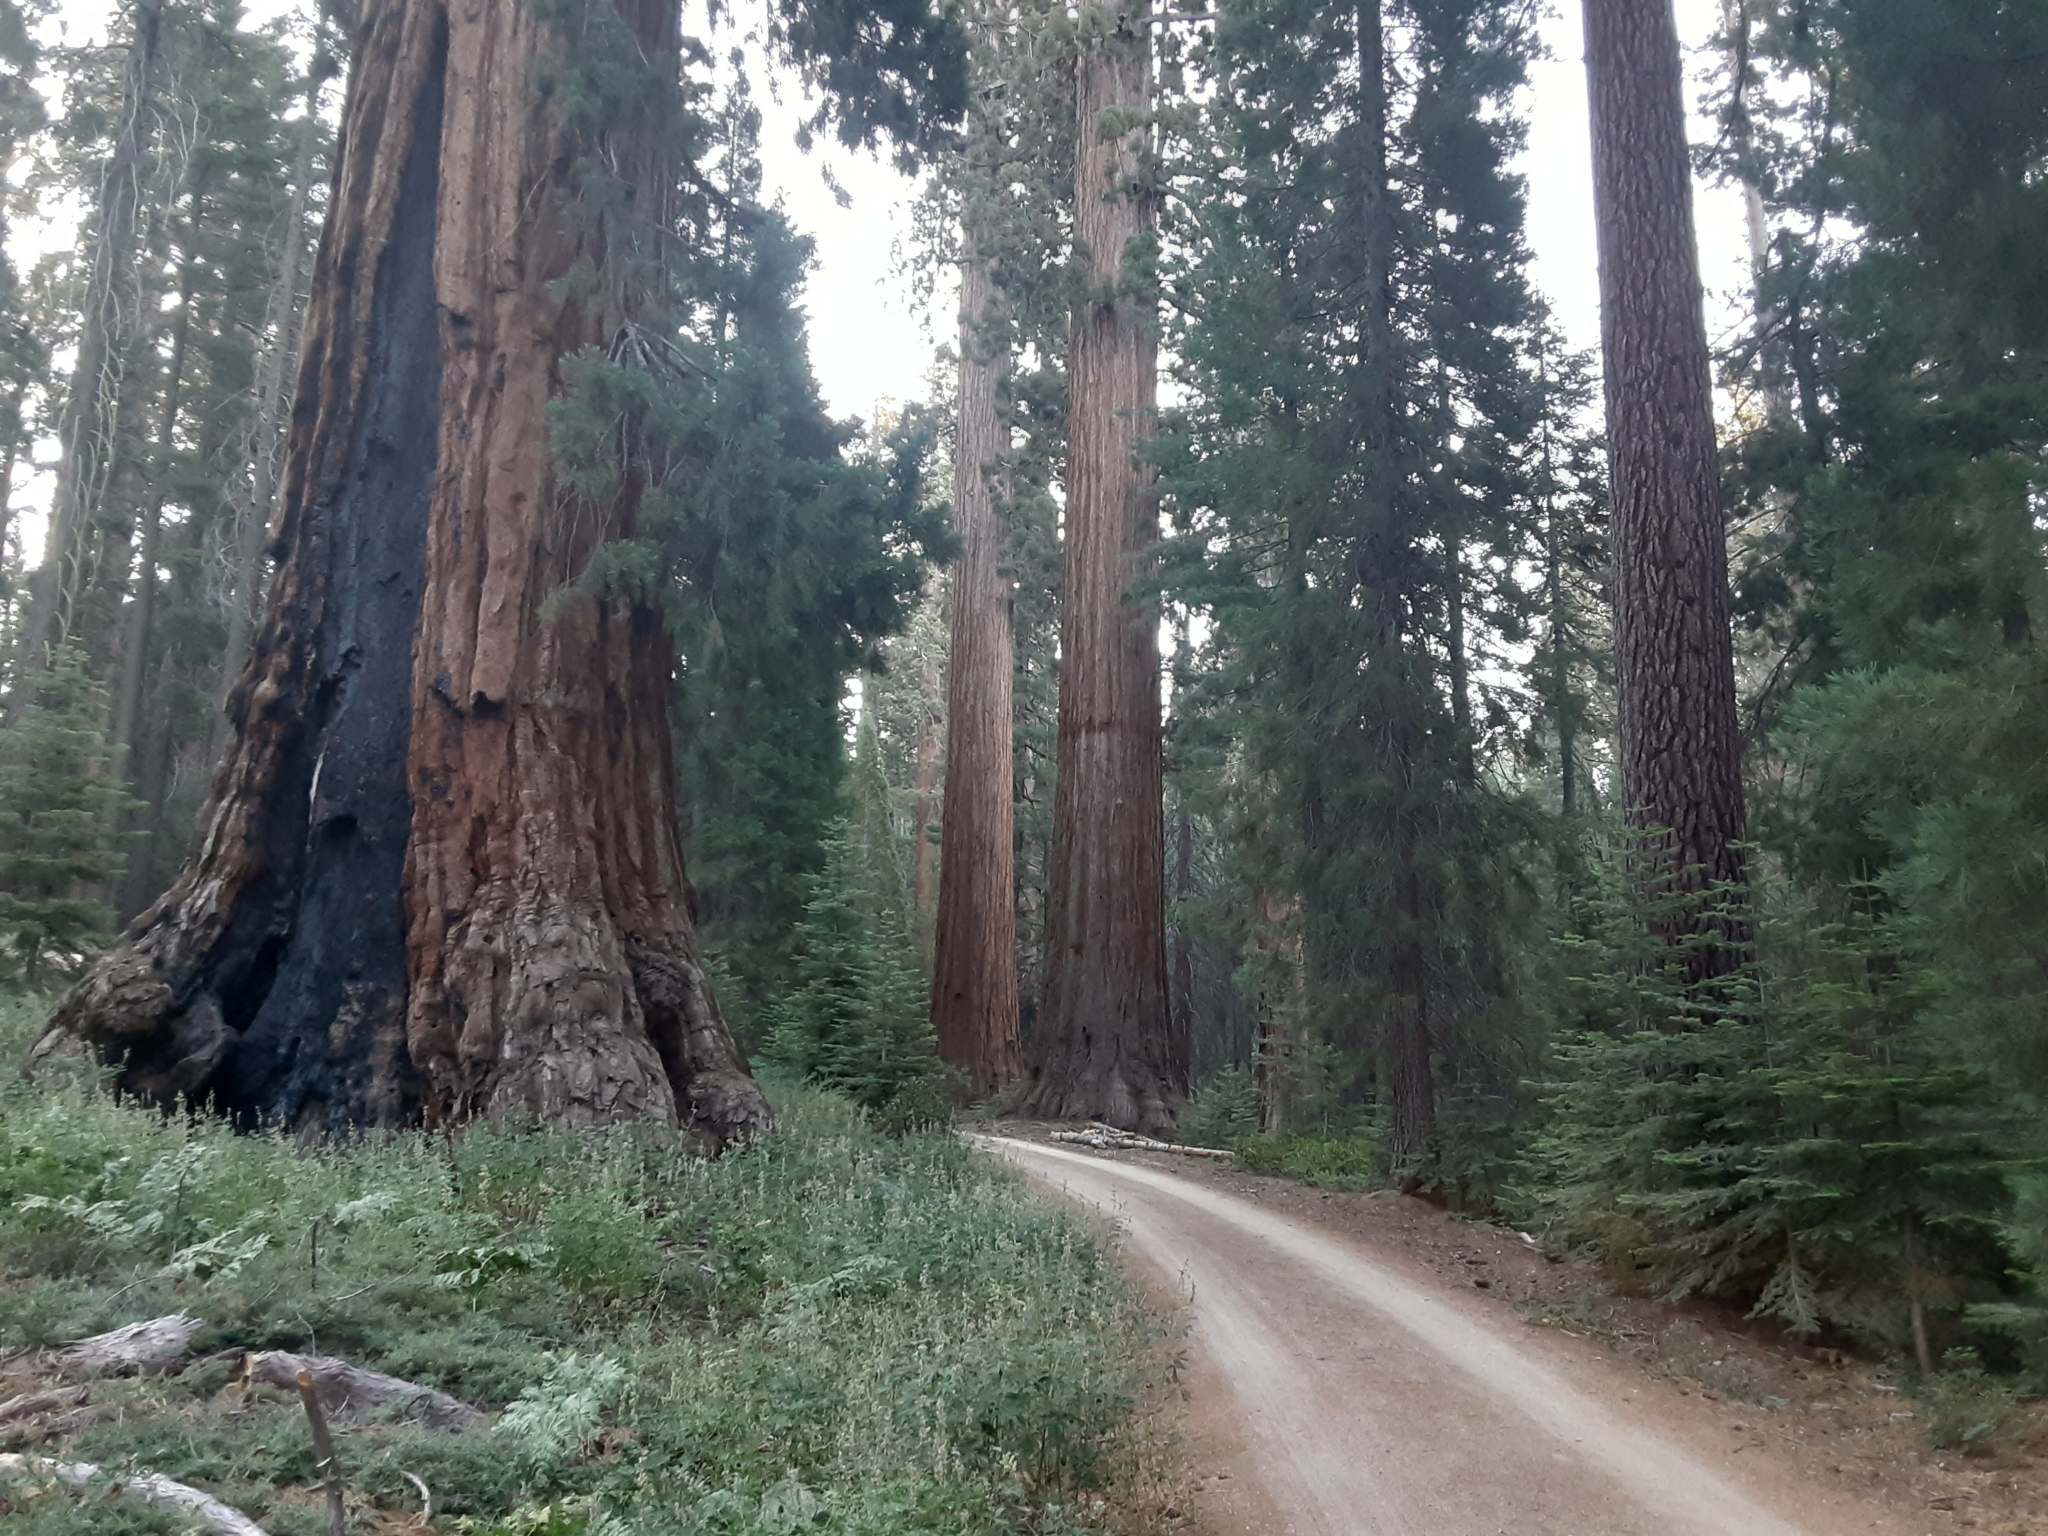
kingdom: Plantae
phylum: Tracheophyta
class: Pinopsida
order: Pinales
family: Cupressaceae
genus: Sequoiadendron
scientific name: Sequoiadendron giganteum
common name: Wellingtonia
